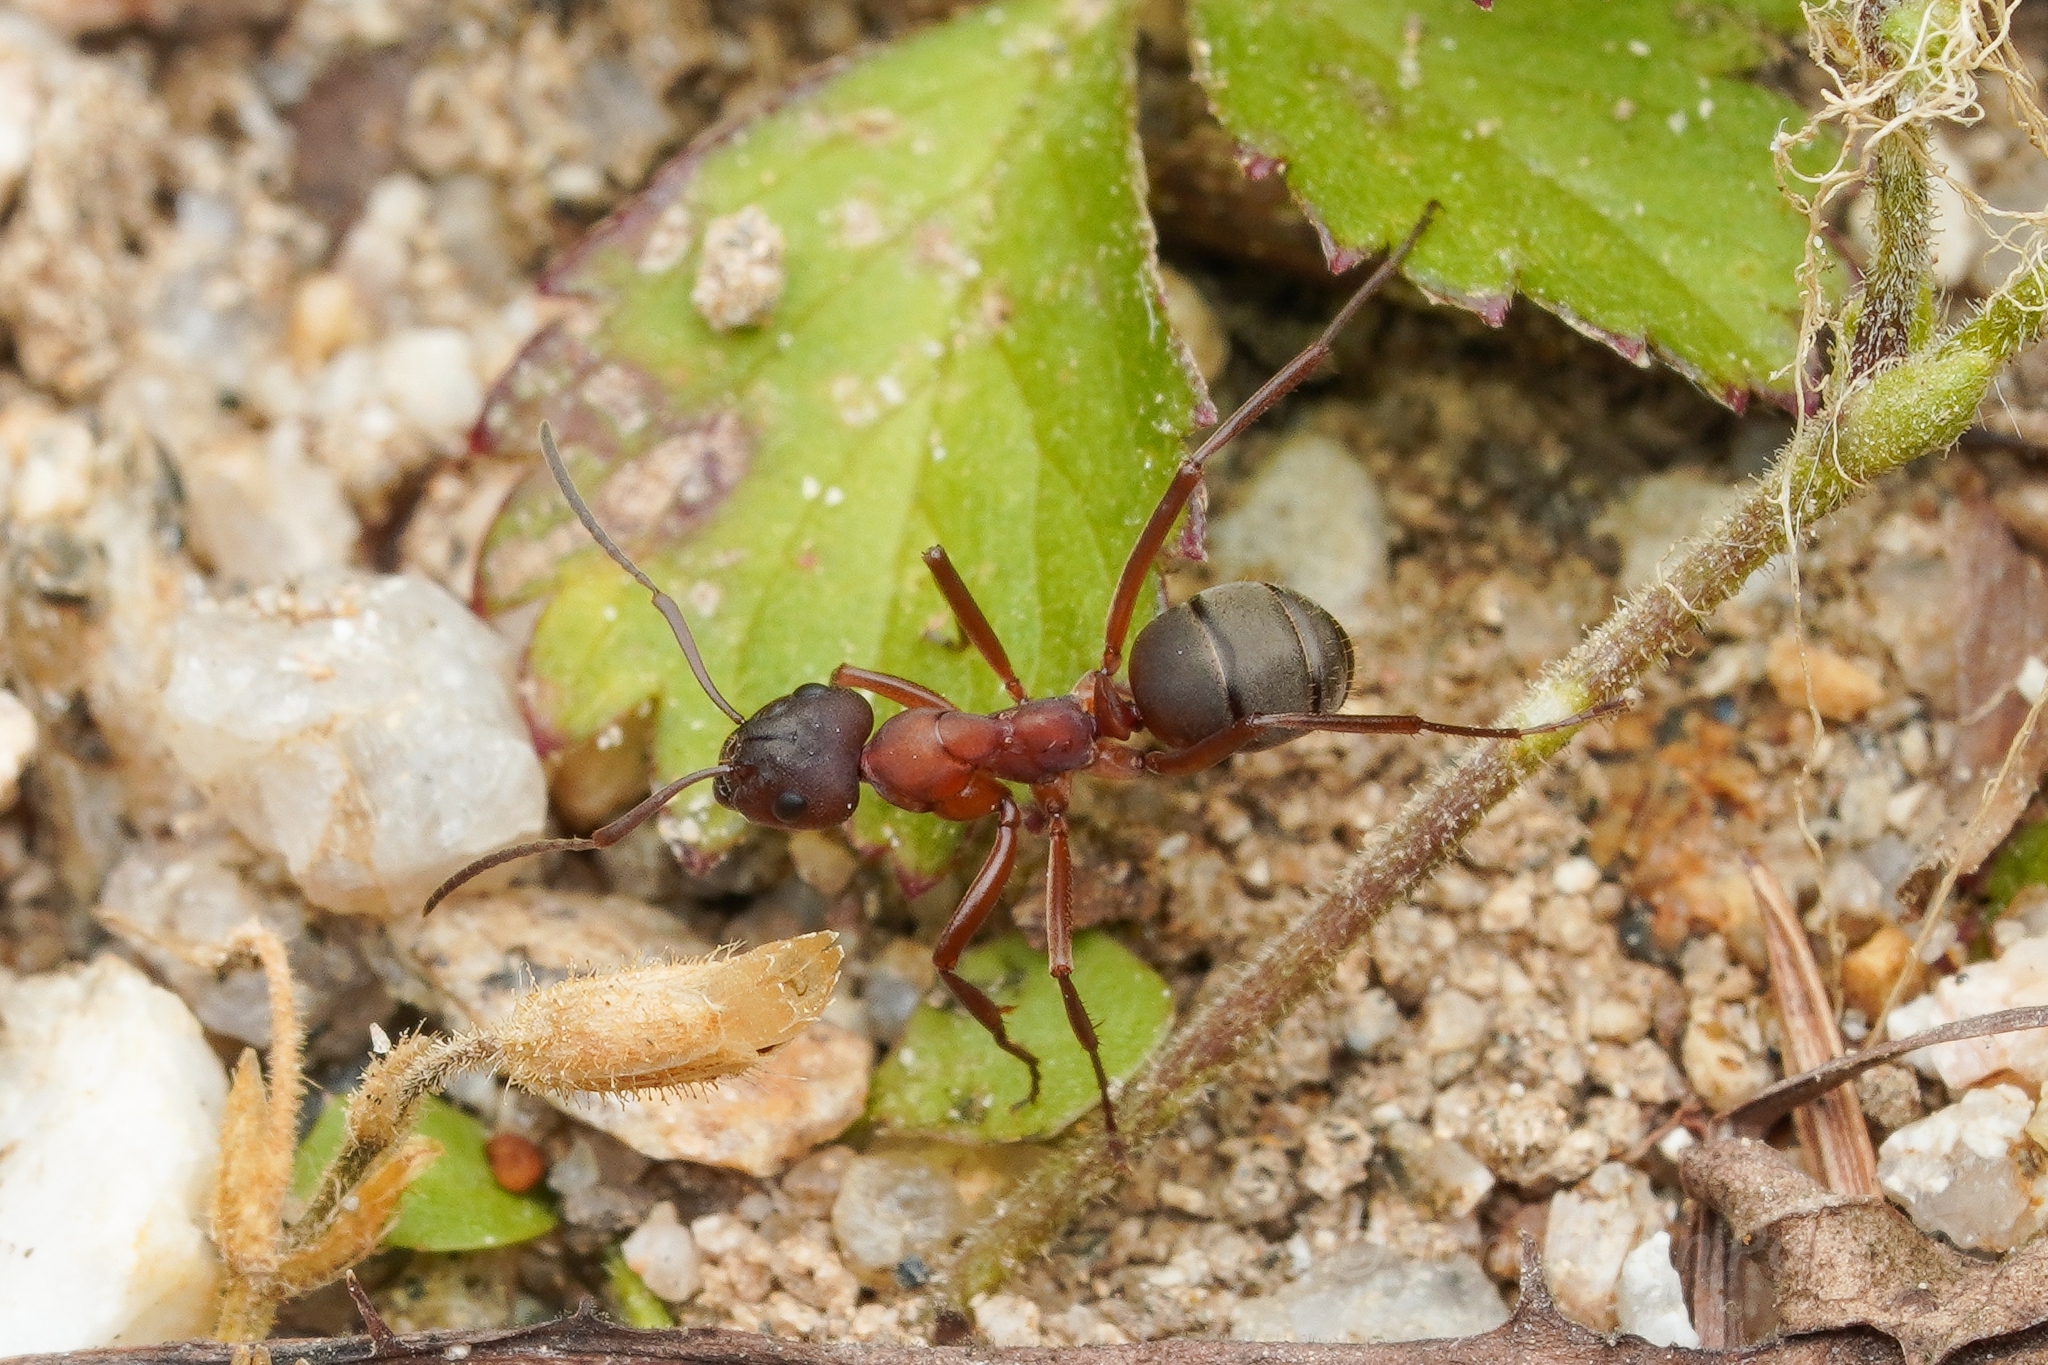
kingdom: Animalia
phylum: Arthropoda
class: Insecta
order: Hymenoptera
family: Formicidae
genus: Formica
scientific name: Formica sanguinea
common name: Blood-red ant
